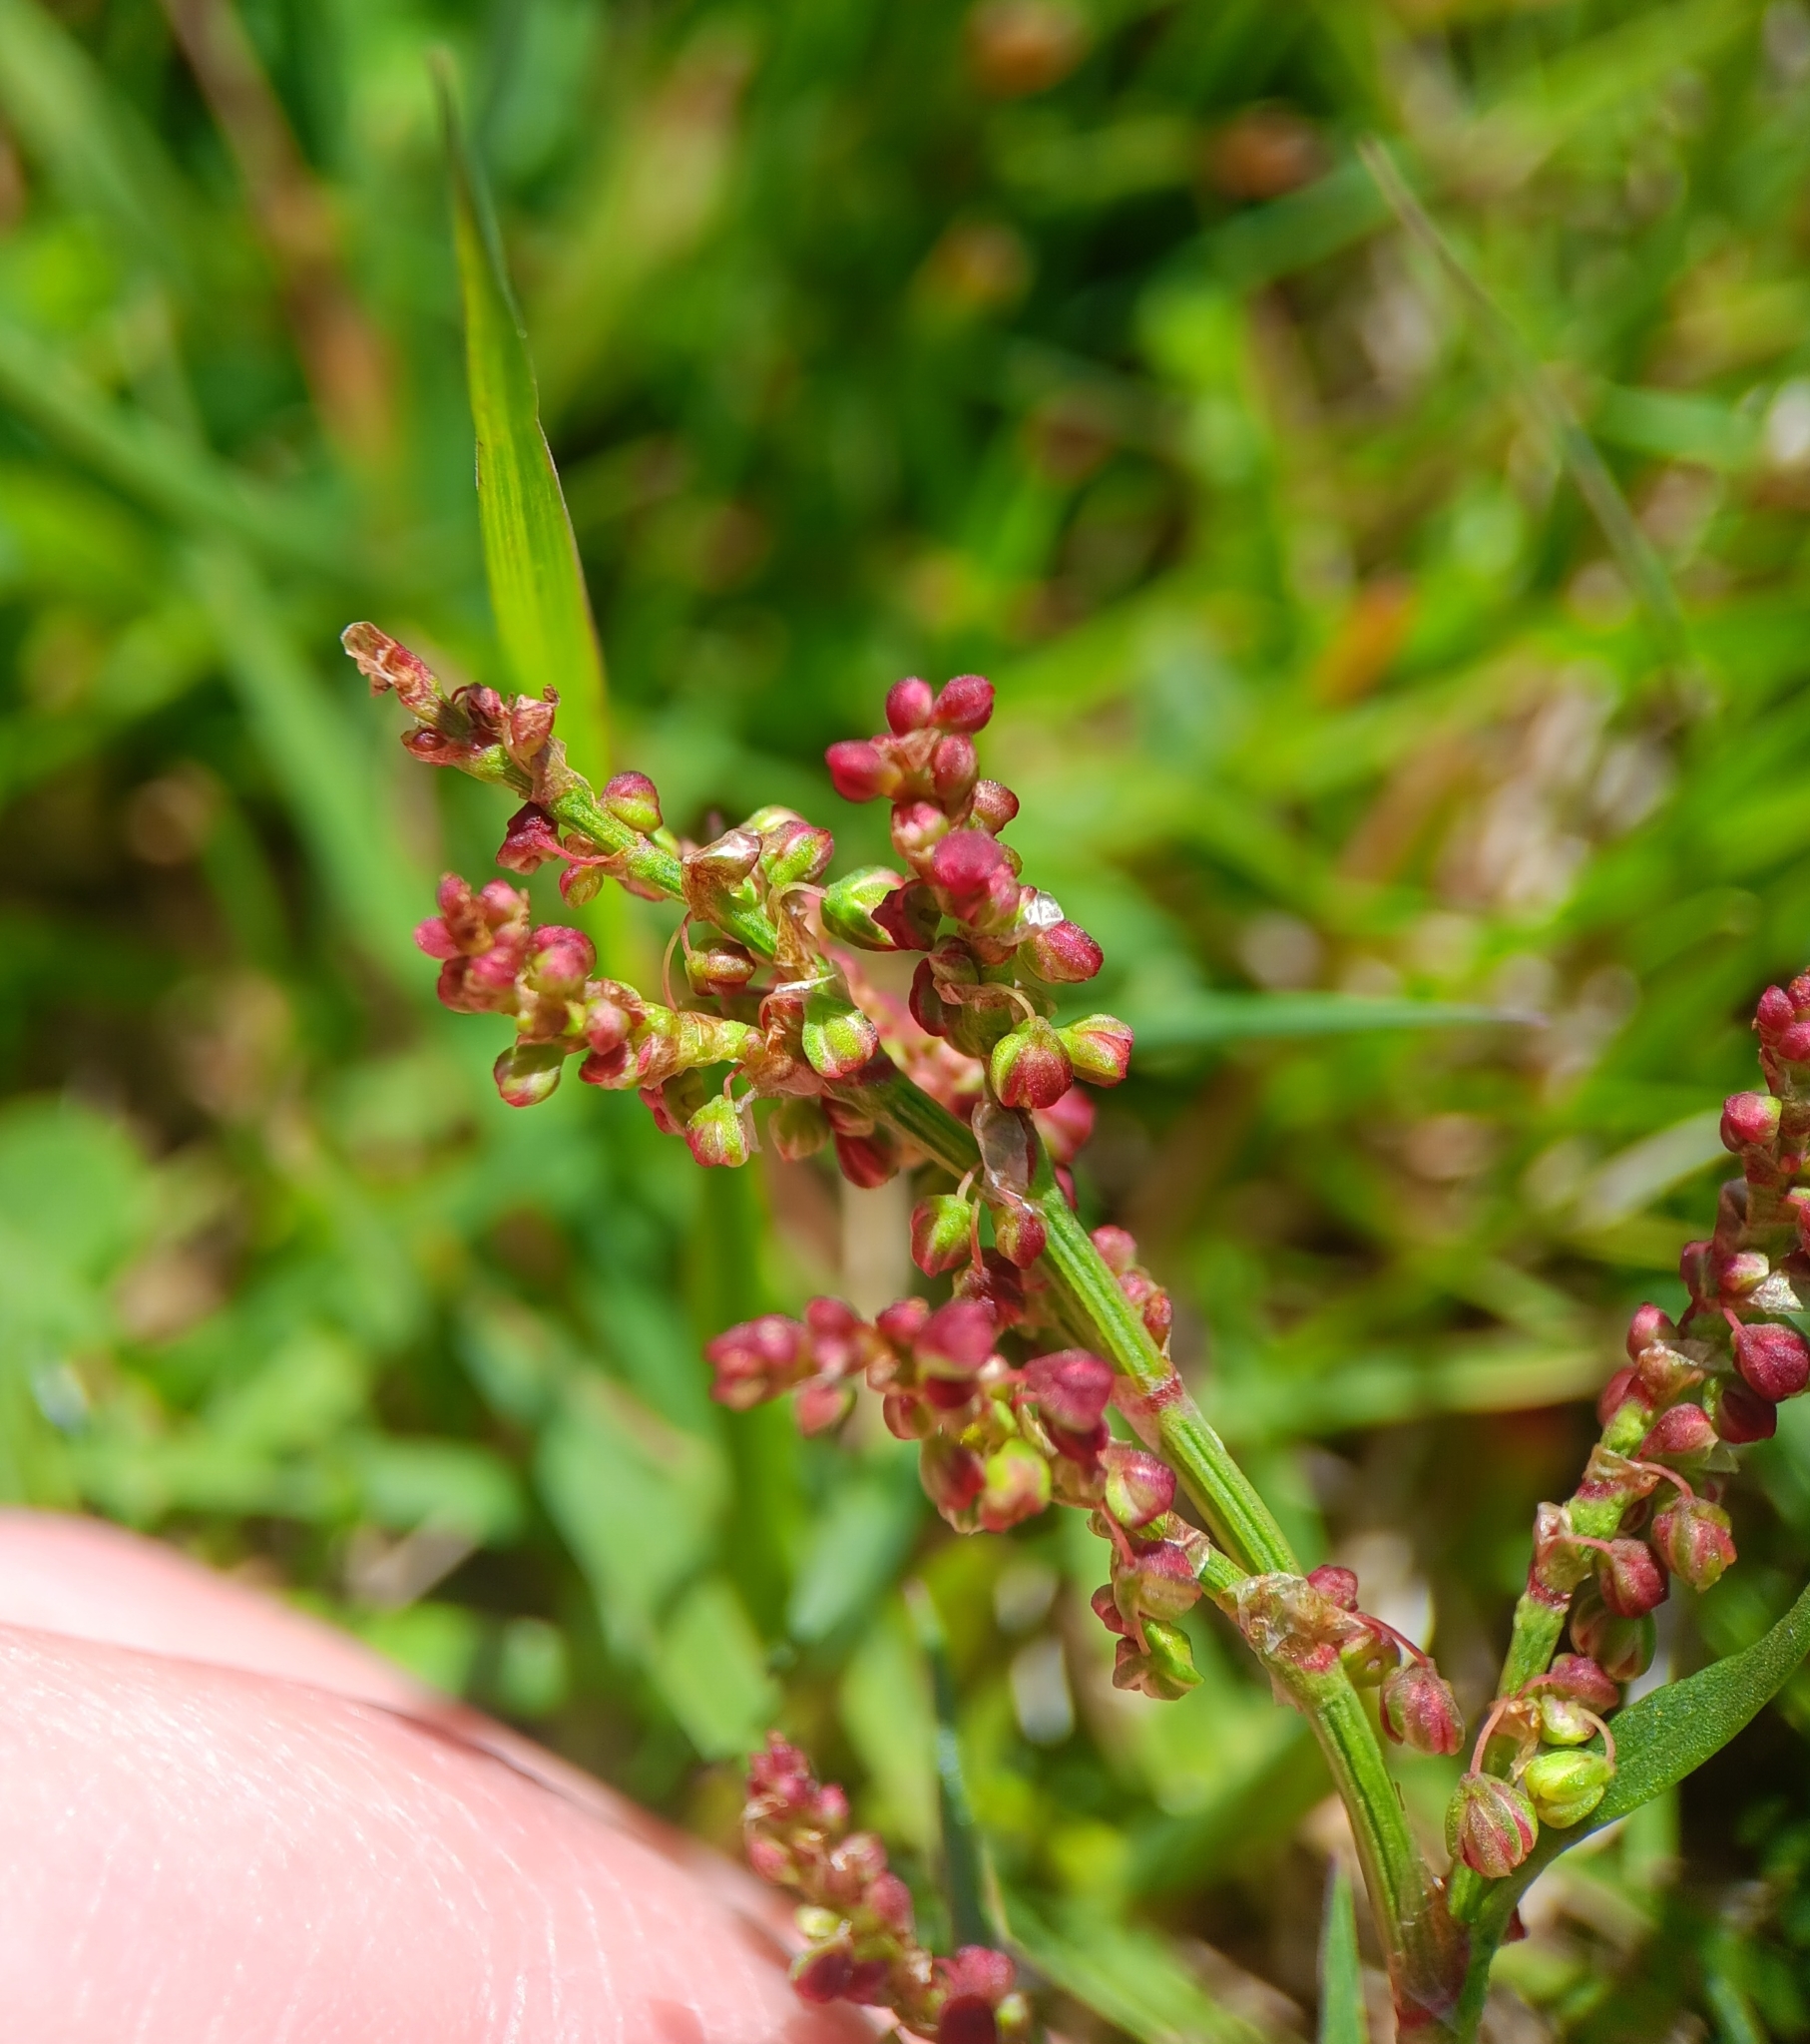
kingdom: Plantae
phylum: Tracheophyta
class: Magnoliopsida
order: Caryophyllales
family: Polygonaceae
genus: Rumex
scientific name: Rumex acetosella
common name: Common sheep sorrel
